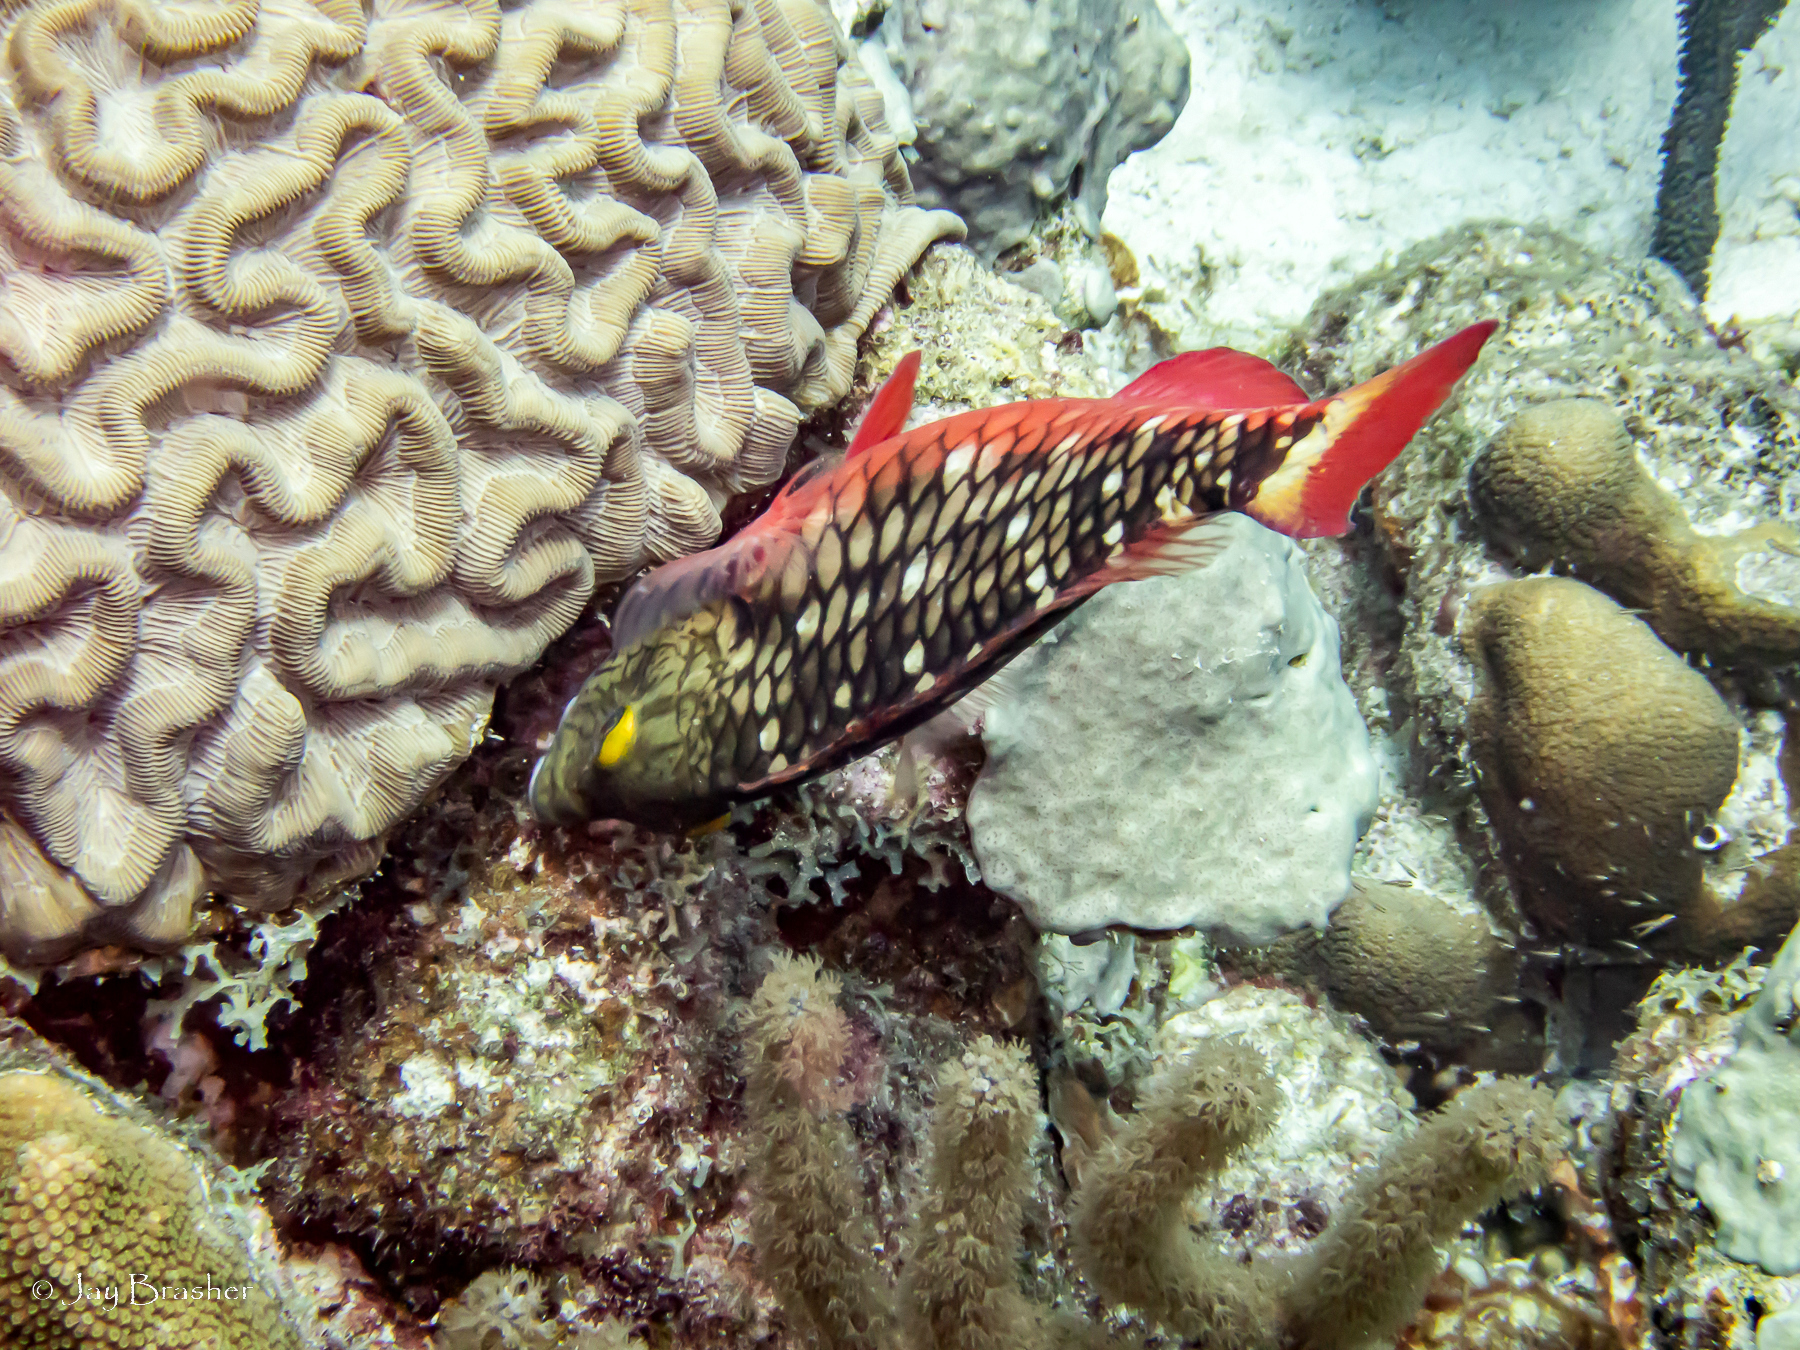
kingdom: Animalia
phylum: Chordata
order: Perciformes
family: Scaridae
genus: Sparisoma
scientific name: Sparisoma viride
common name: Stoplight parrotfish
